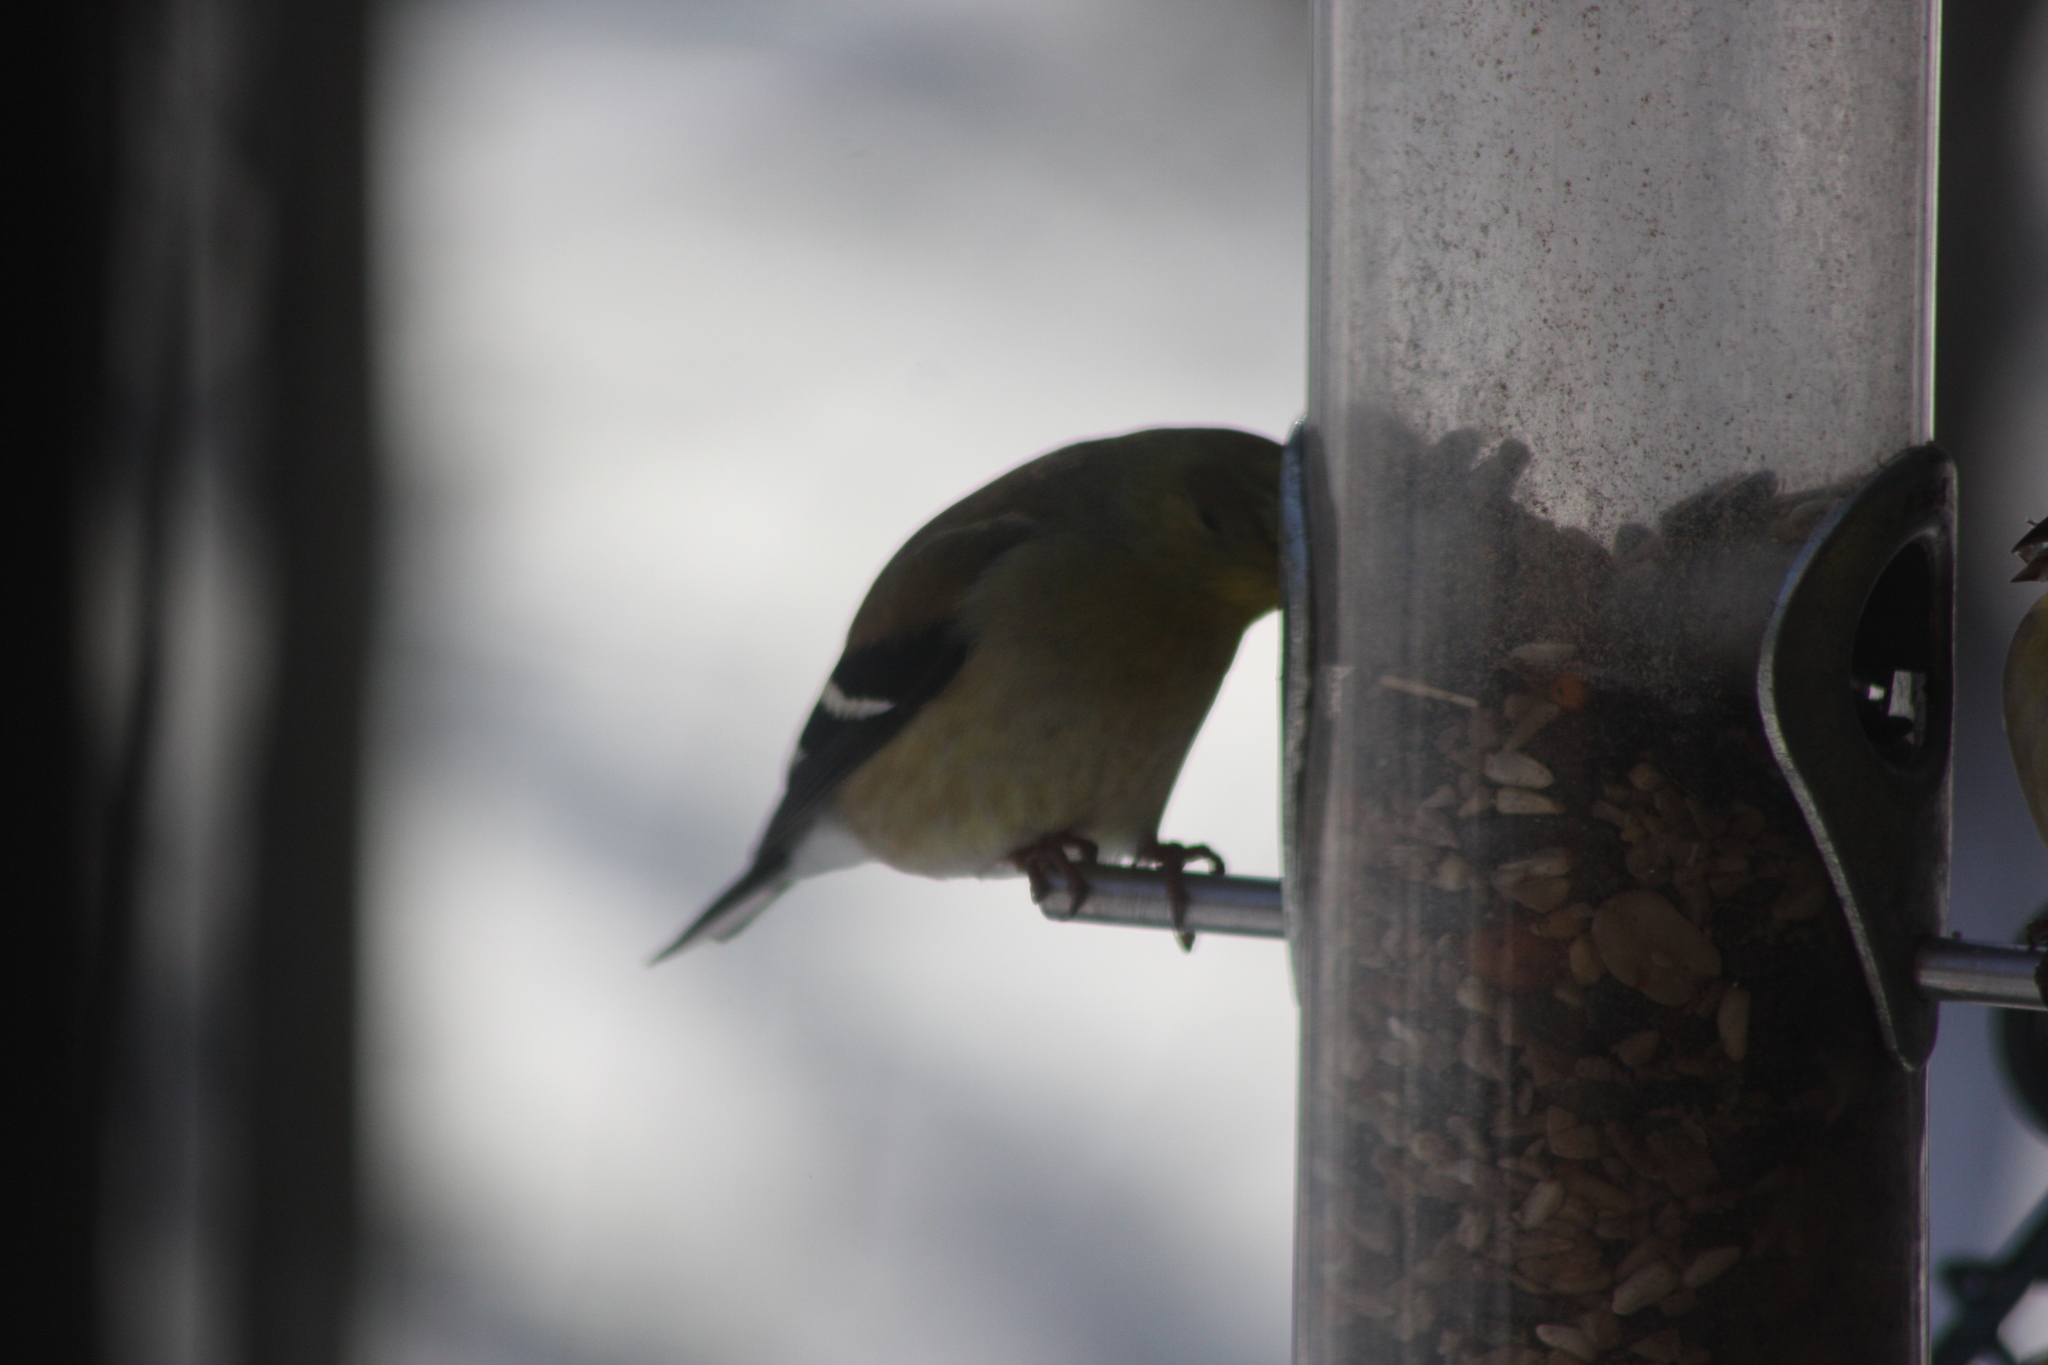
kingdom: Animalia
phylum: Chordata
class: Aves
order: Passeriformes
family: Fringillidae
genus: Spinus
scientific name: Spinus tristis
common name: American goldfinch
